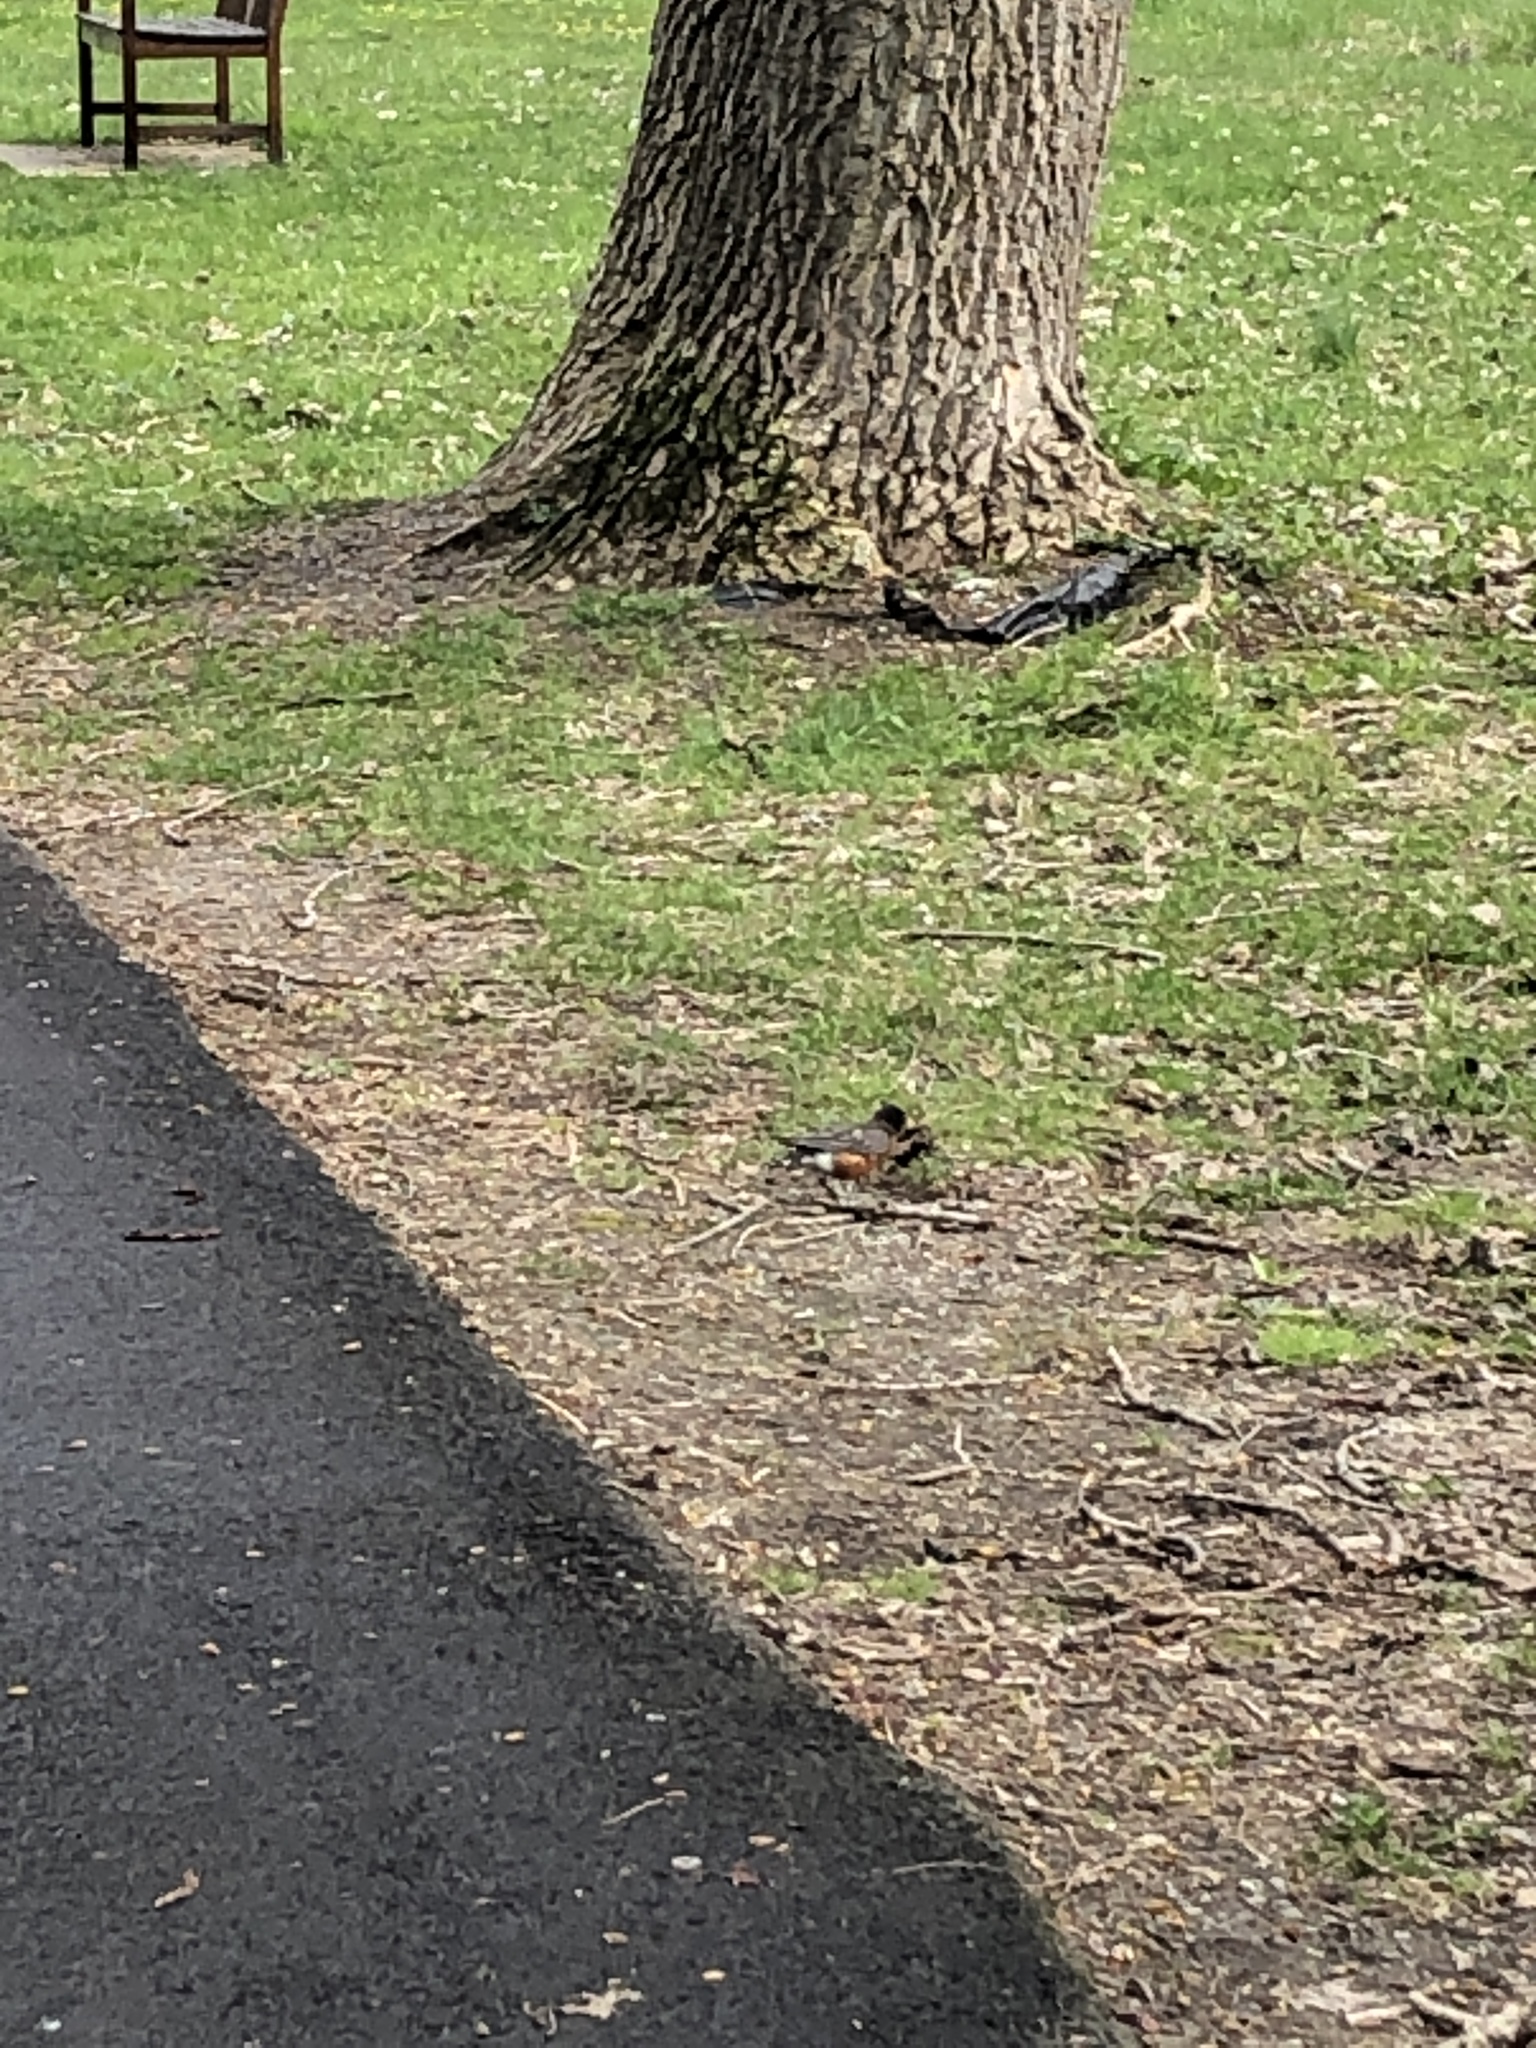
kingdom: Animalia
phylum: Chordata
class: Aves
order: Passeriformes
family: Turdidae
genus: Turdus
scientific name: Turdus migratorius
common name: American robin
